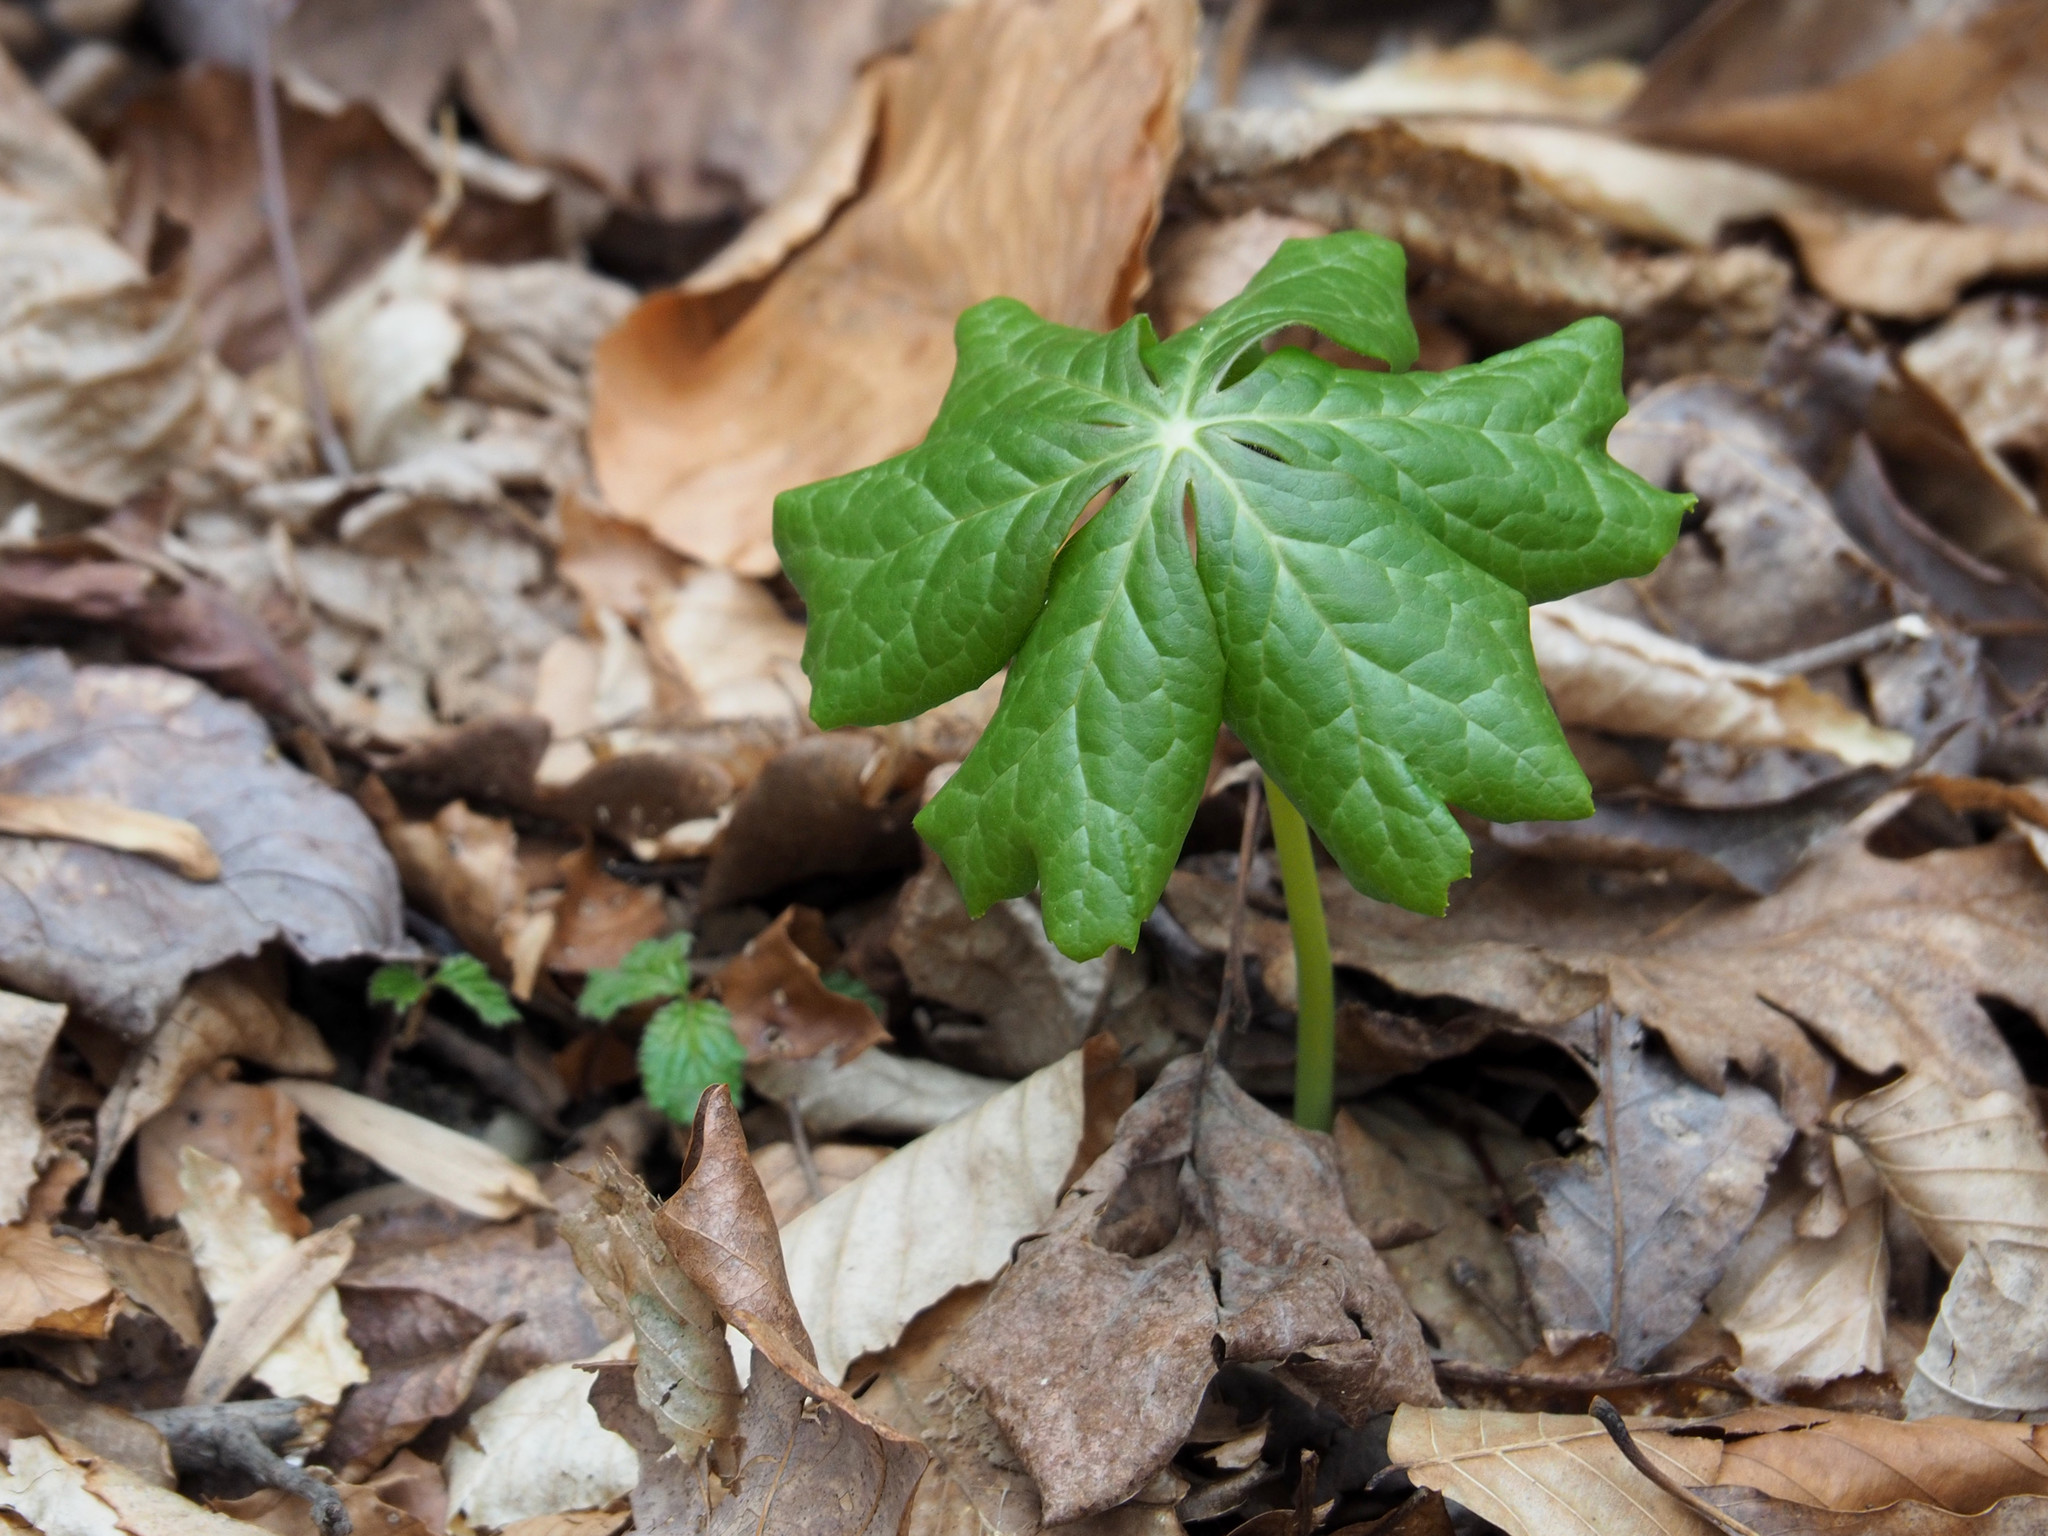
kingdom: Plantae
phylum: Tracheophyta
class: Magnoliopsida
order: Ranunculales
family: Berberidaceae
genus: Podophyllum
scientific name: Podophyllum peltatum
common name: Wild mandrake
